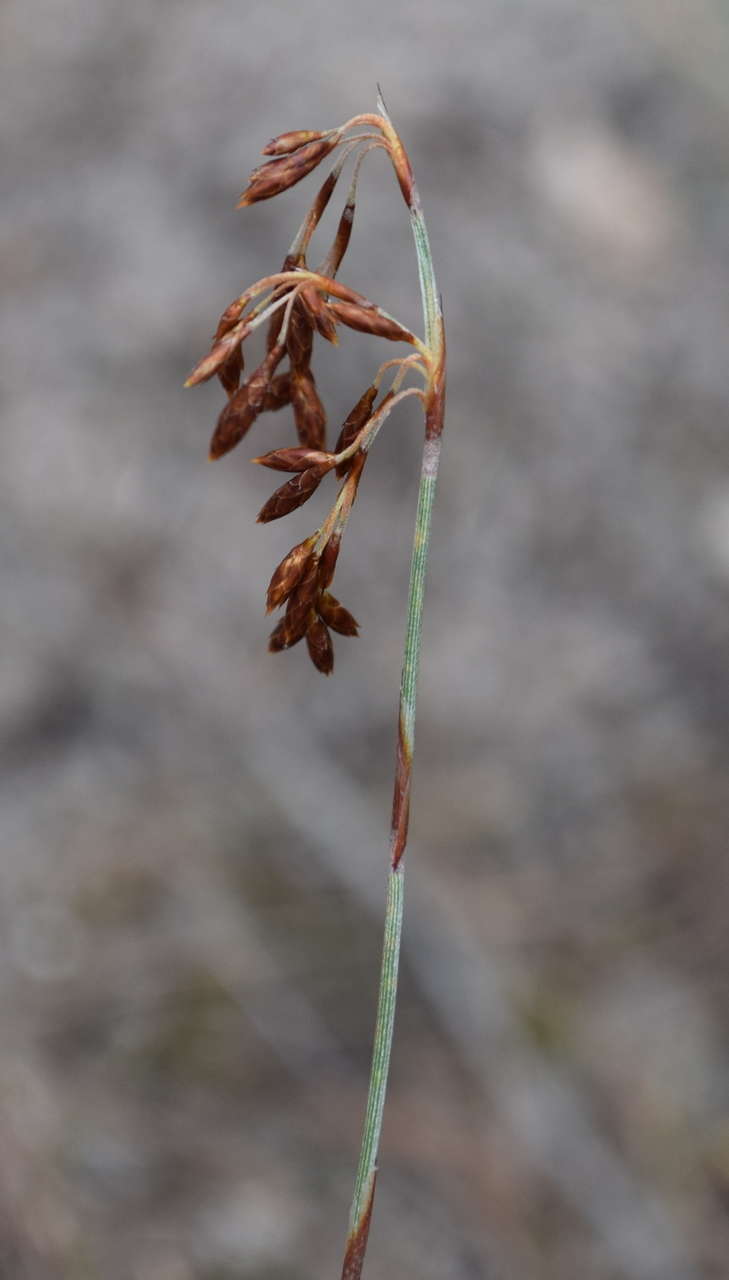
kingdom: Plantae
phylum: Tracheophyta
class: Liliopsida
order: Poales
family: Restionaceae
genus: Hypolaena
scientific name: Hypolaena fastigiata
